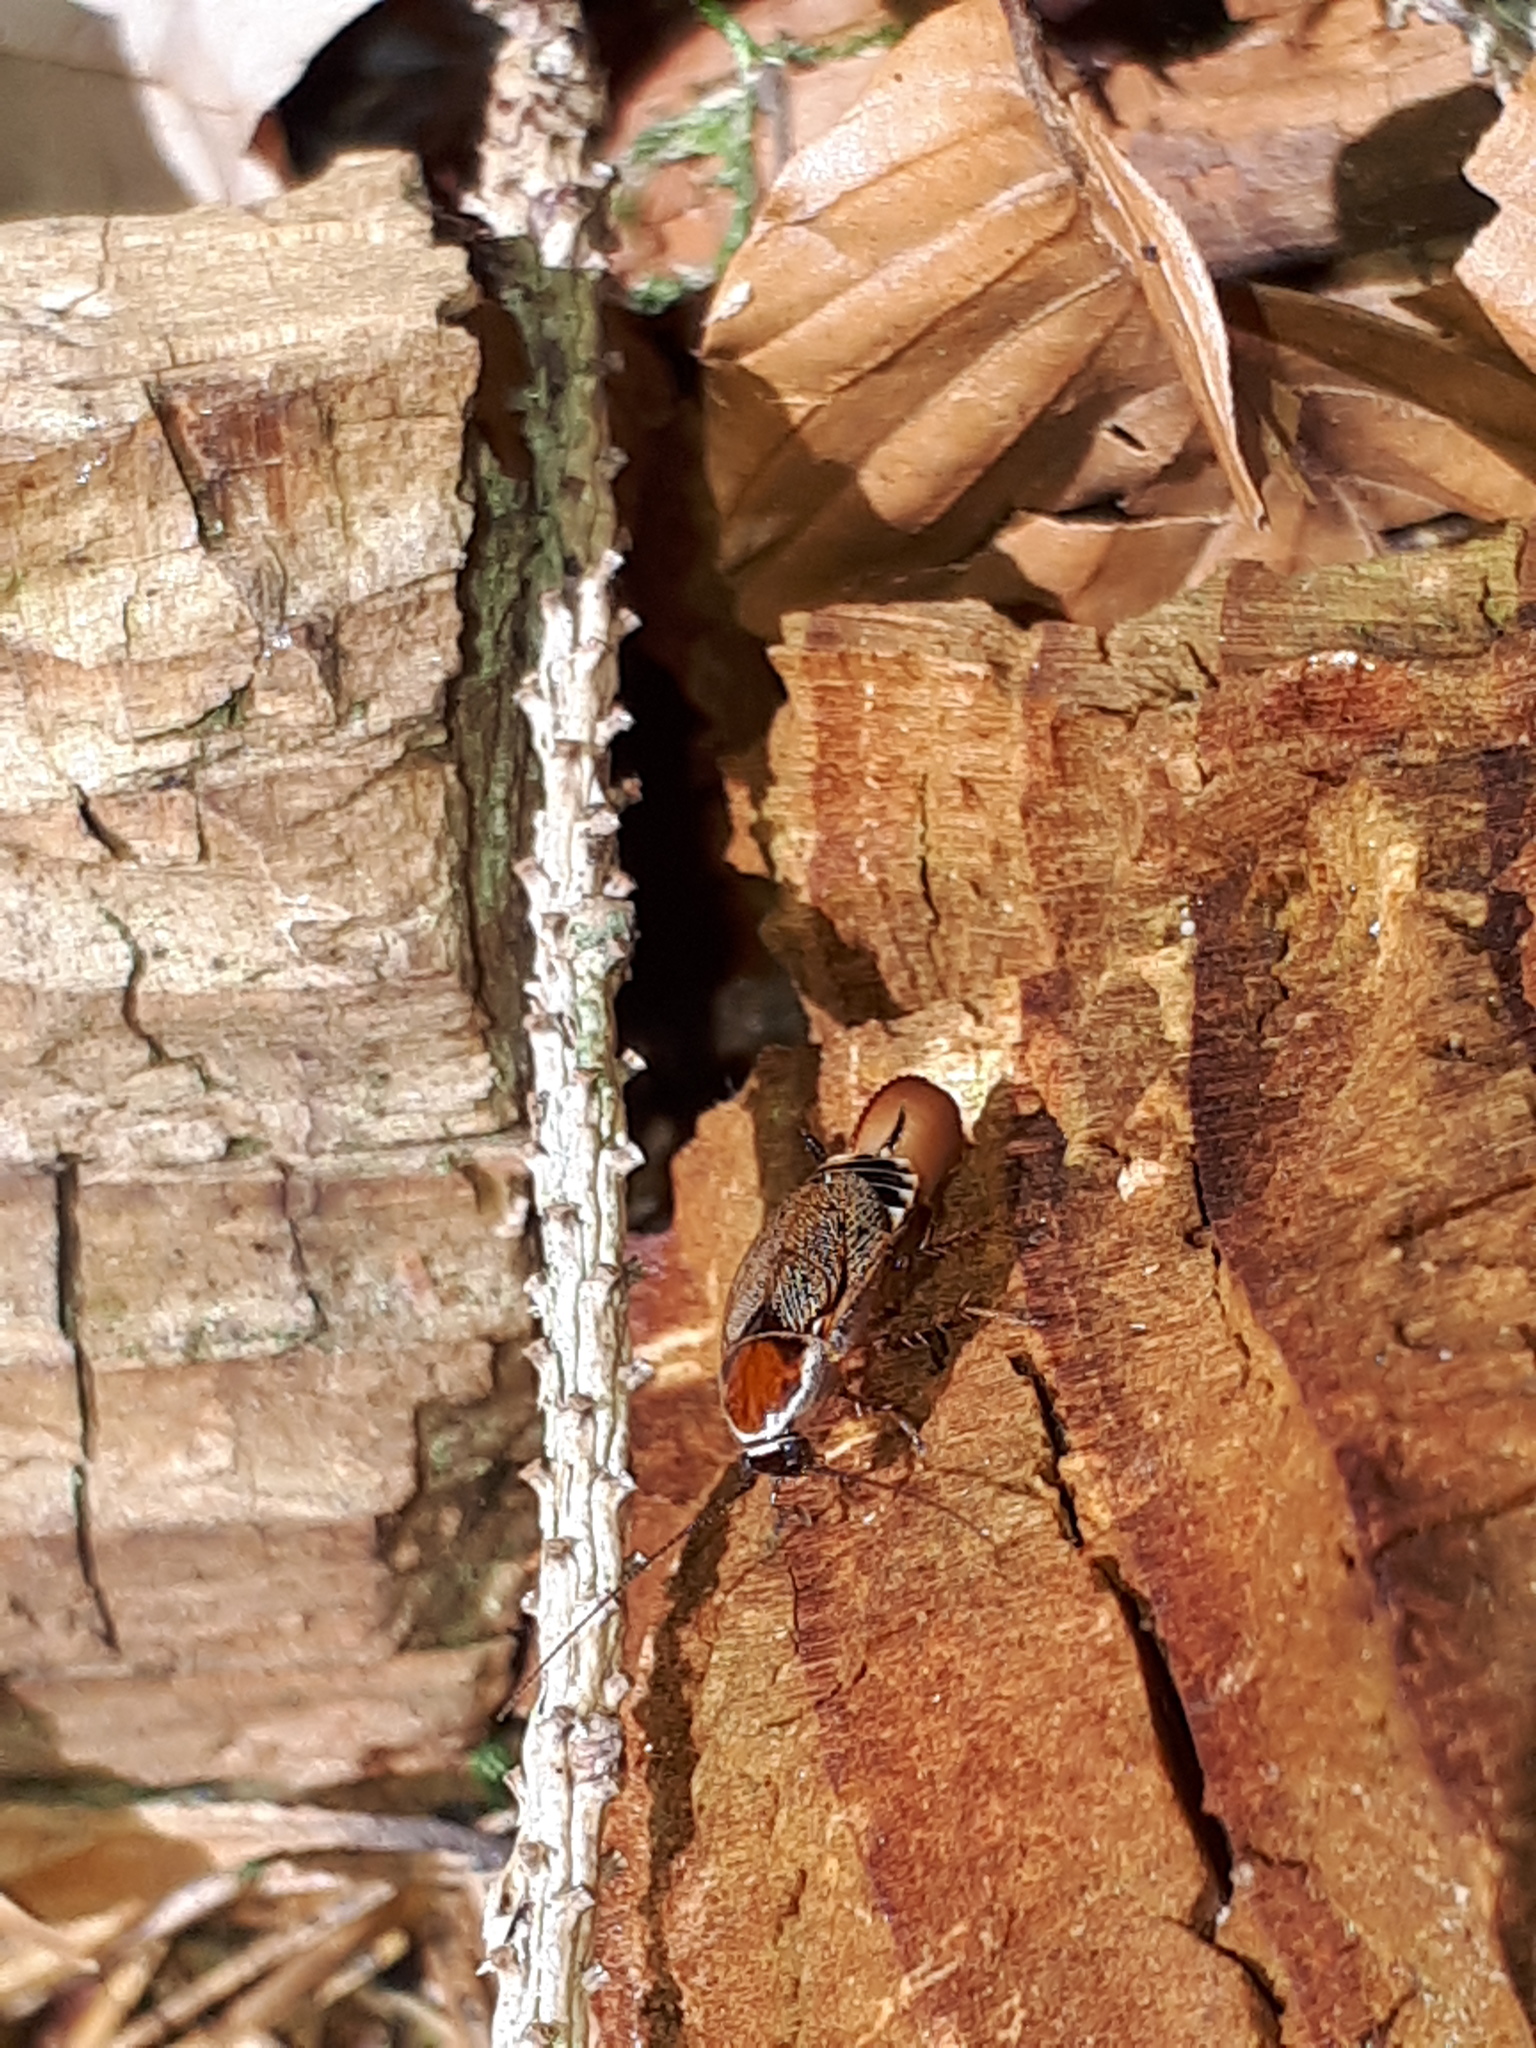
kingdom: Animalia
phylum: Arthropoda
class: Insecta
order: Blattodea
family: Ectobiidae
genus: Ectobius
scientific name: Ectobius sylvestris
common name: Forest cockroach
